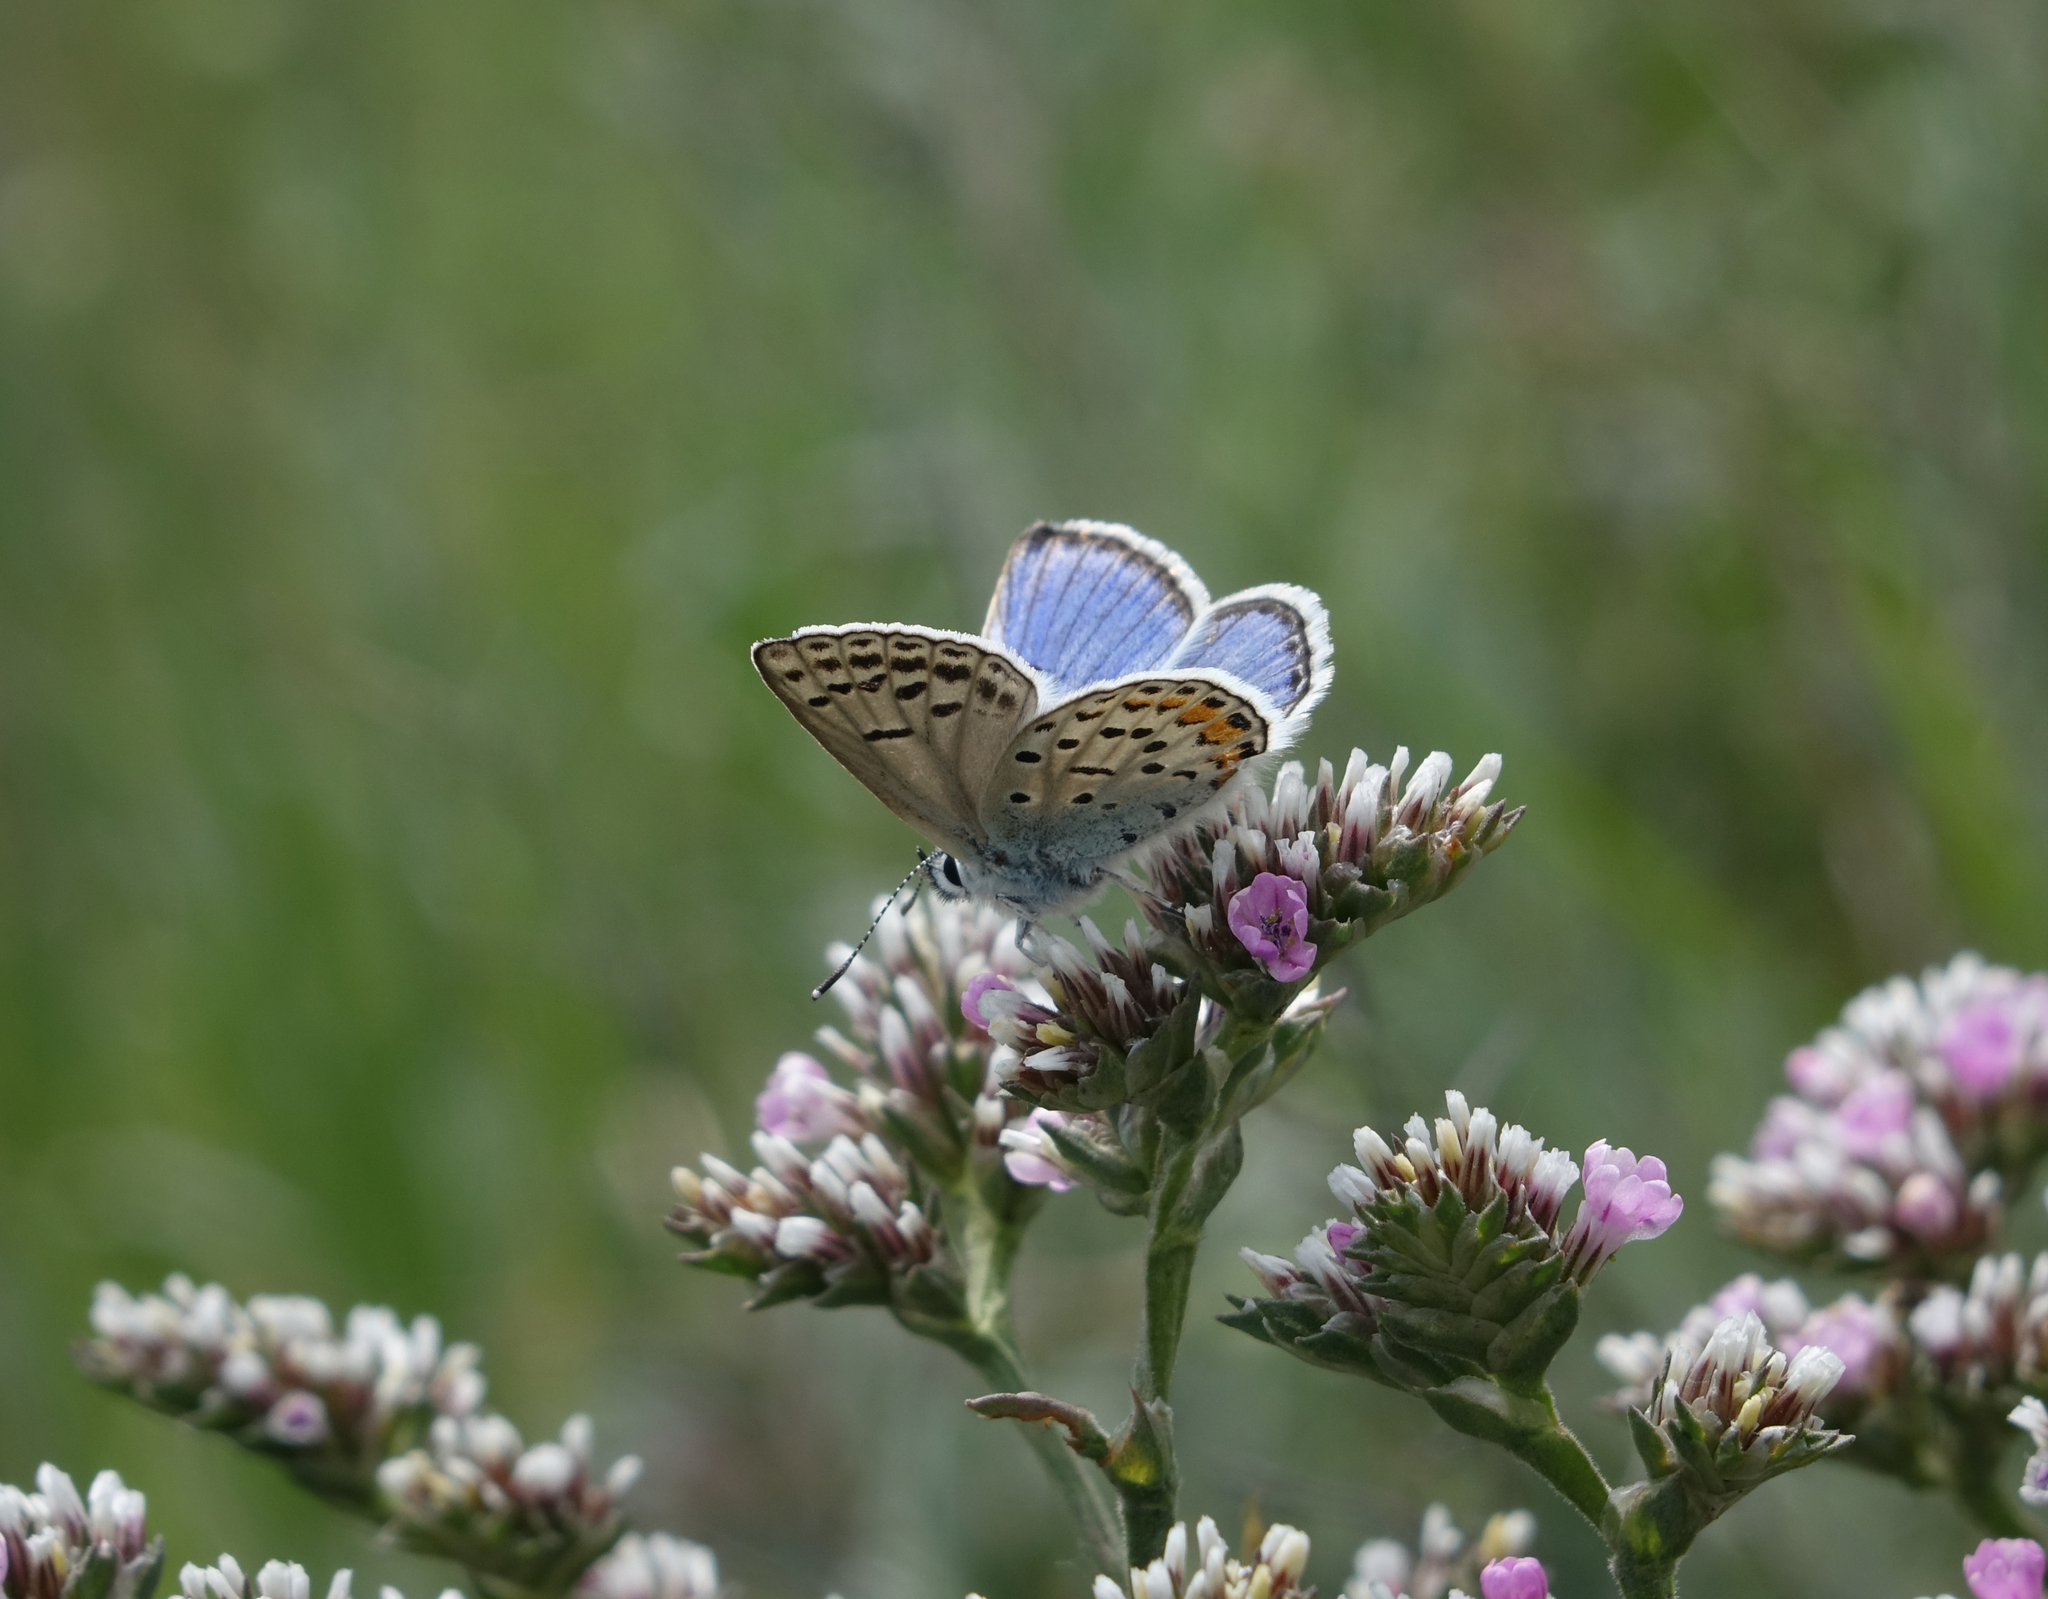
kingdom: Plantae
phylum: Tracheophyta
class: Magnoliopsida
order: Caryophyllales
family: Plumbaginaceae
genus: Goniolimon
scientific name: Goniolimon speciosum
